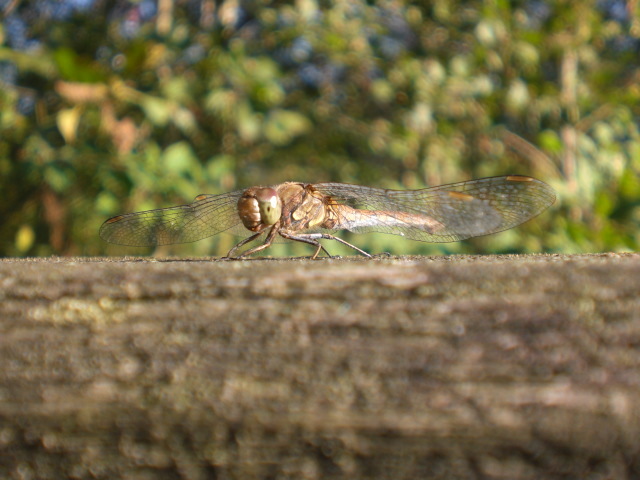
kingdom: Animalia
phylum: Arthropoda
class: Insecta
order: Odonata
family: Libellulidae
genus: Sympetrum
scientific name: Sympetrum striolatum
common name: Common darter
